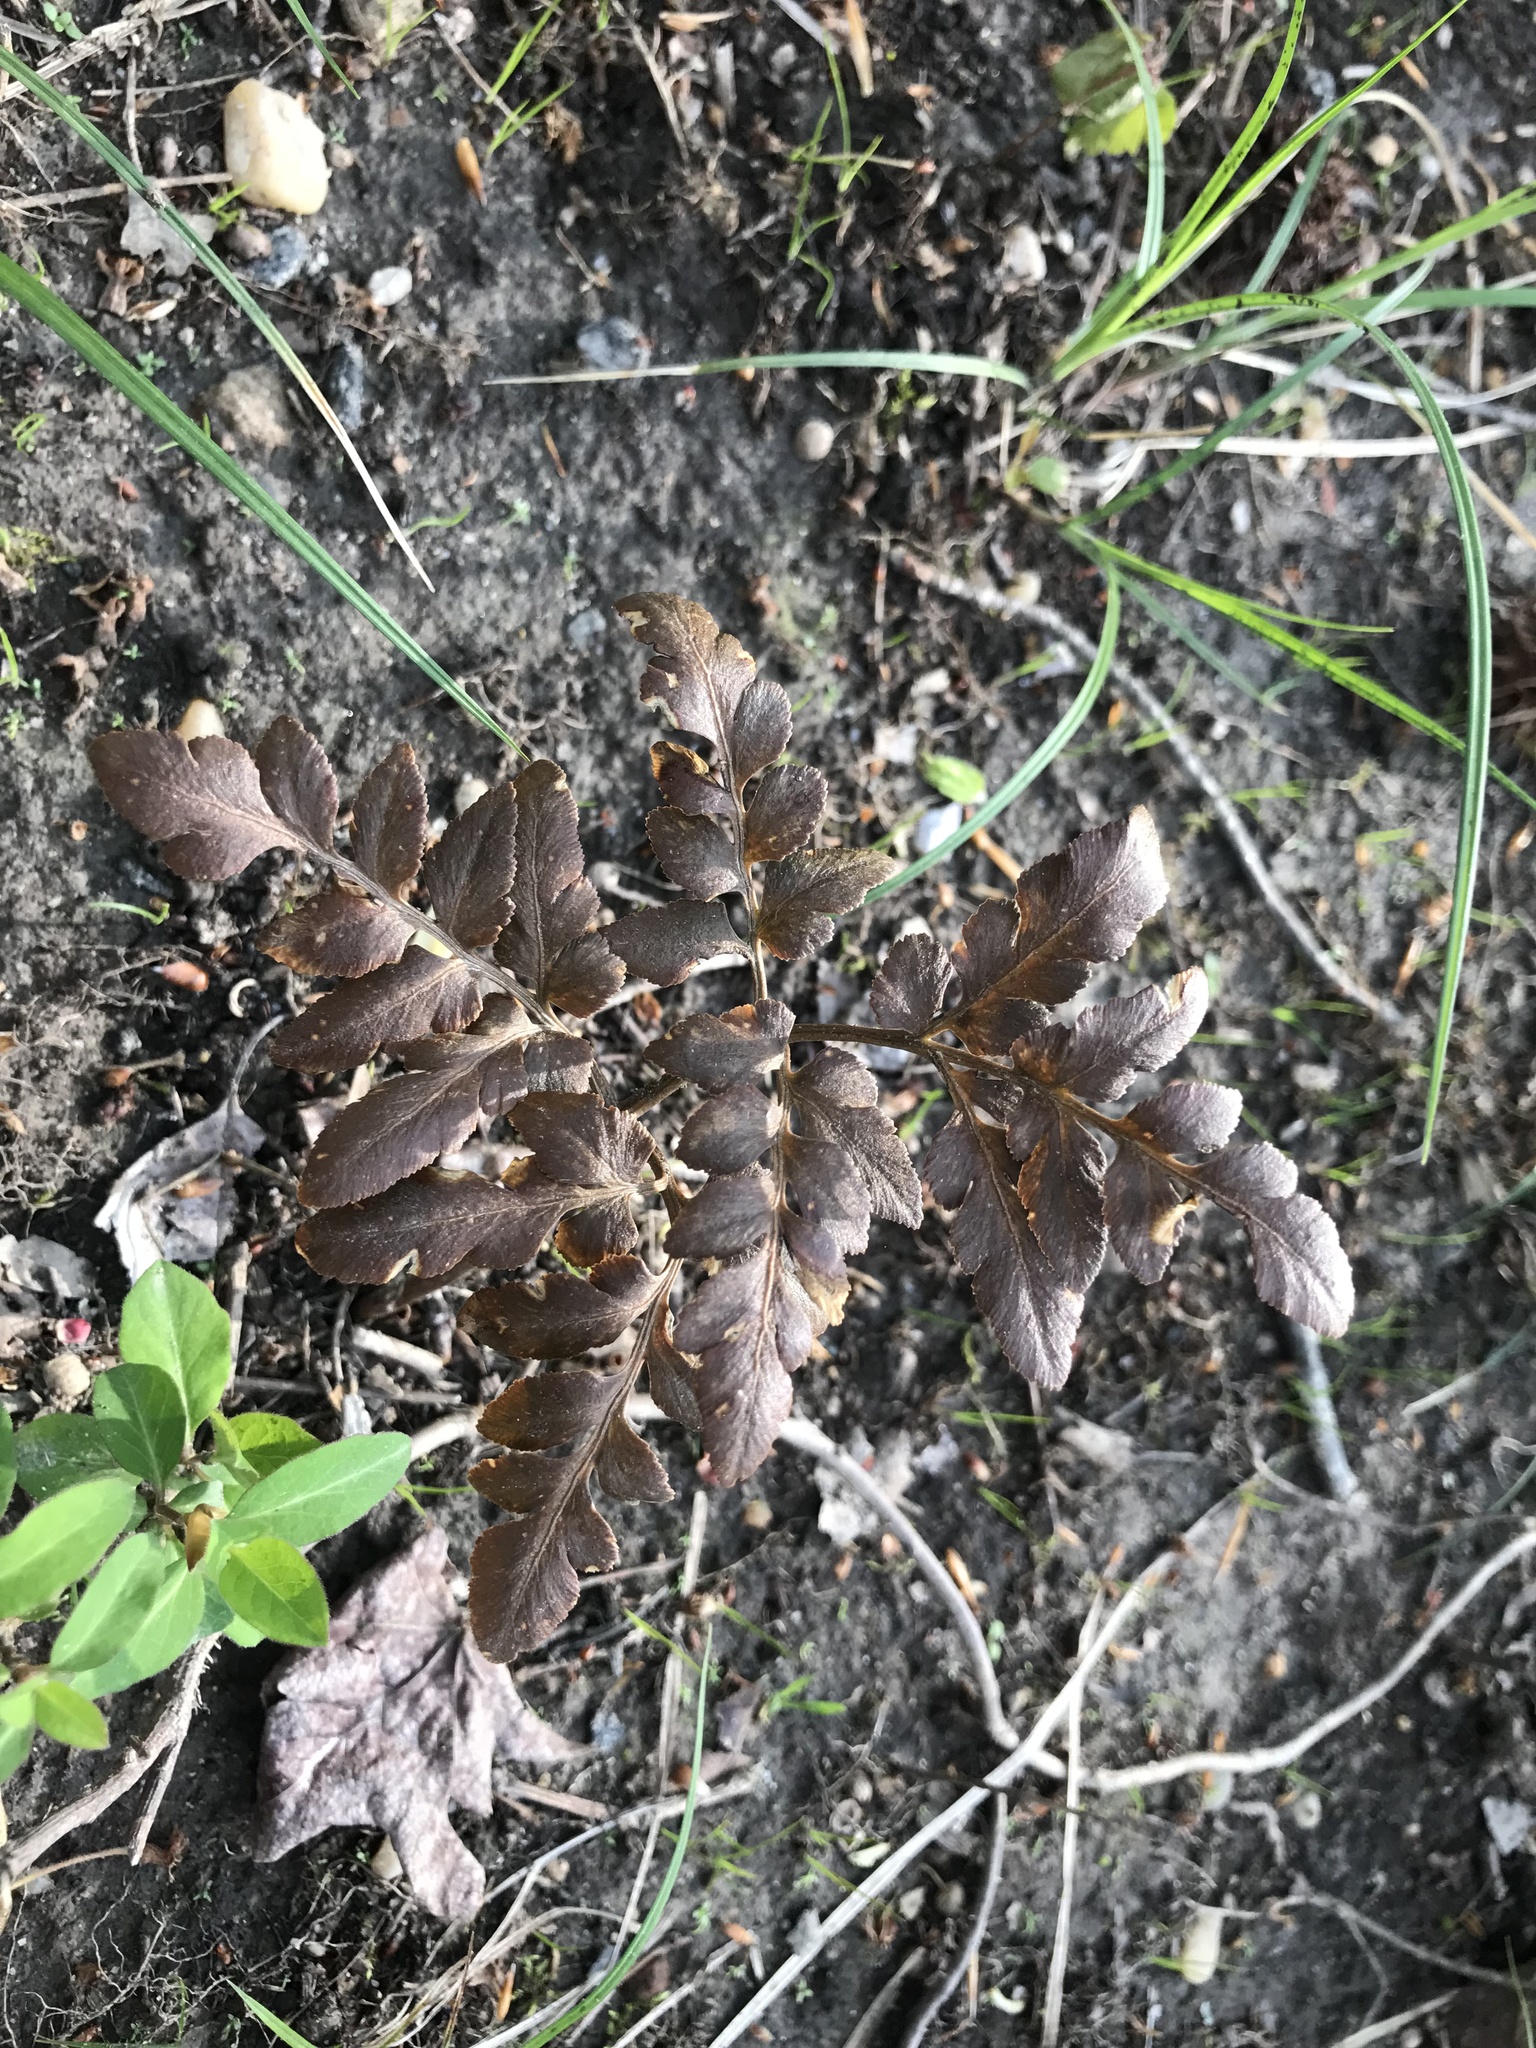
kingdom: Plantae
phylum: Tracheophyta
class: Polypodiopsida
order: Ophioglossales
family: Ophioglossaceae
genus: Sceptridium
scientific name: Sceptridium dissectum
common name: Cut-leaved grapefern
